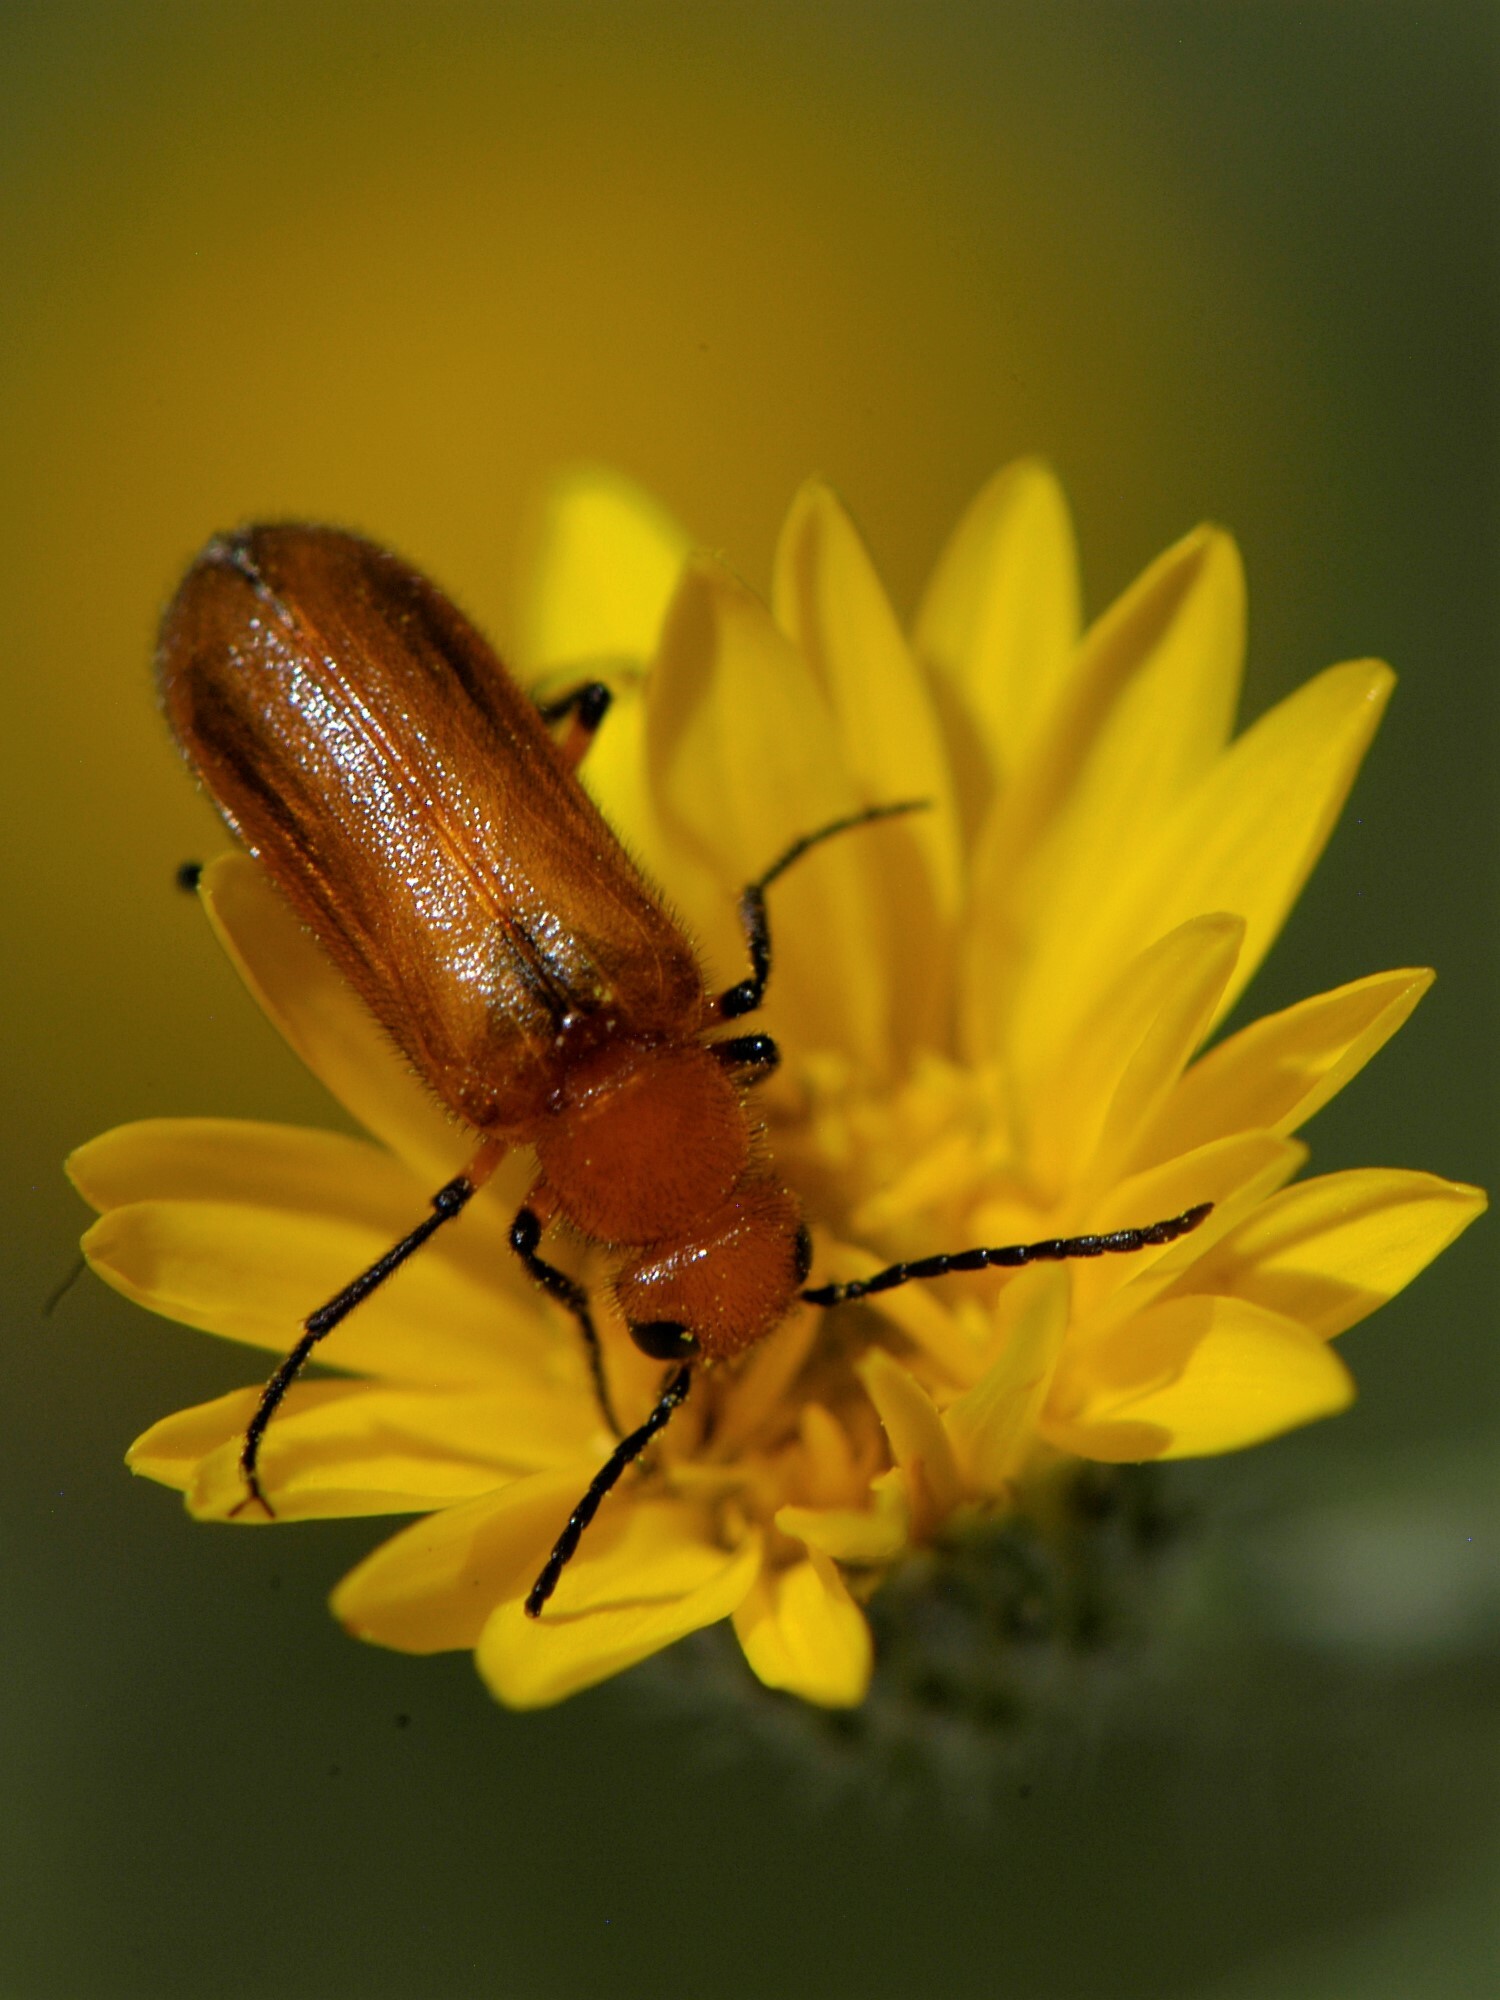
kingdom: Animalia
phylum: Arthropoda
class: Insecta
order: Coleoptera
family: Meloidae
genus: Nemognatha
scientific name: Nemognatha nigripennis
